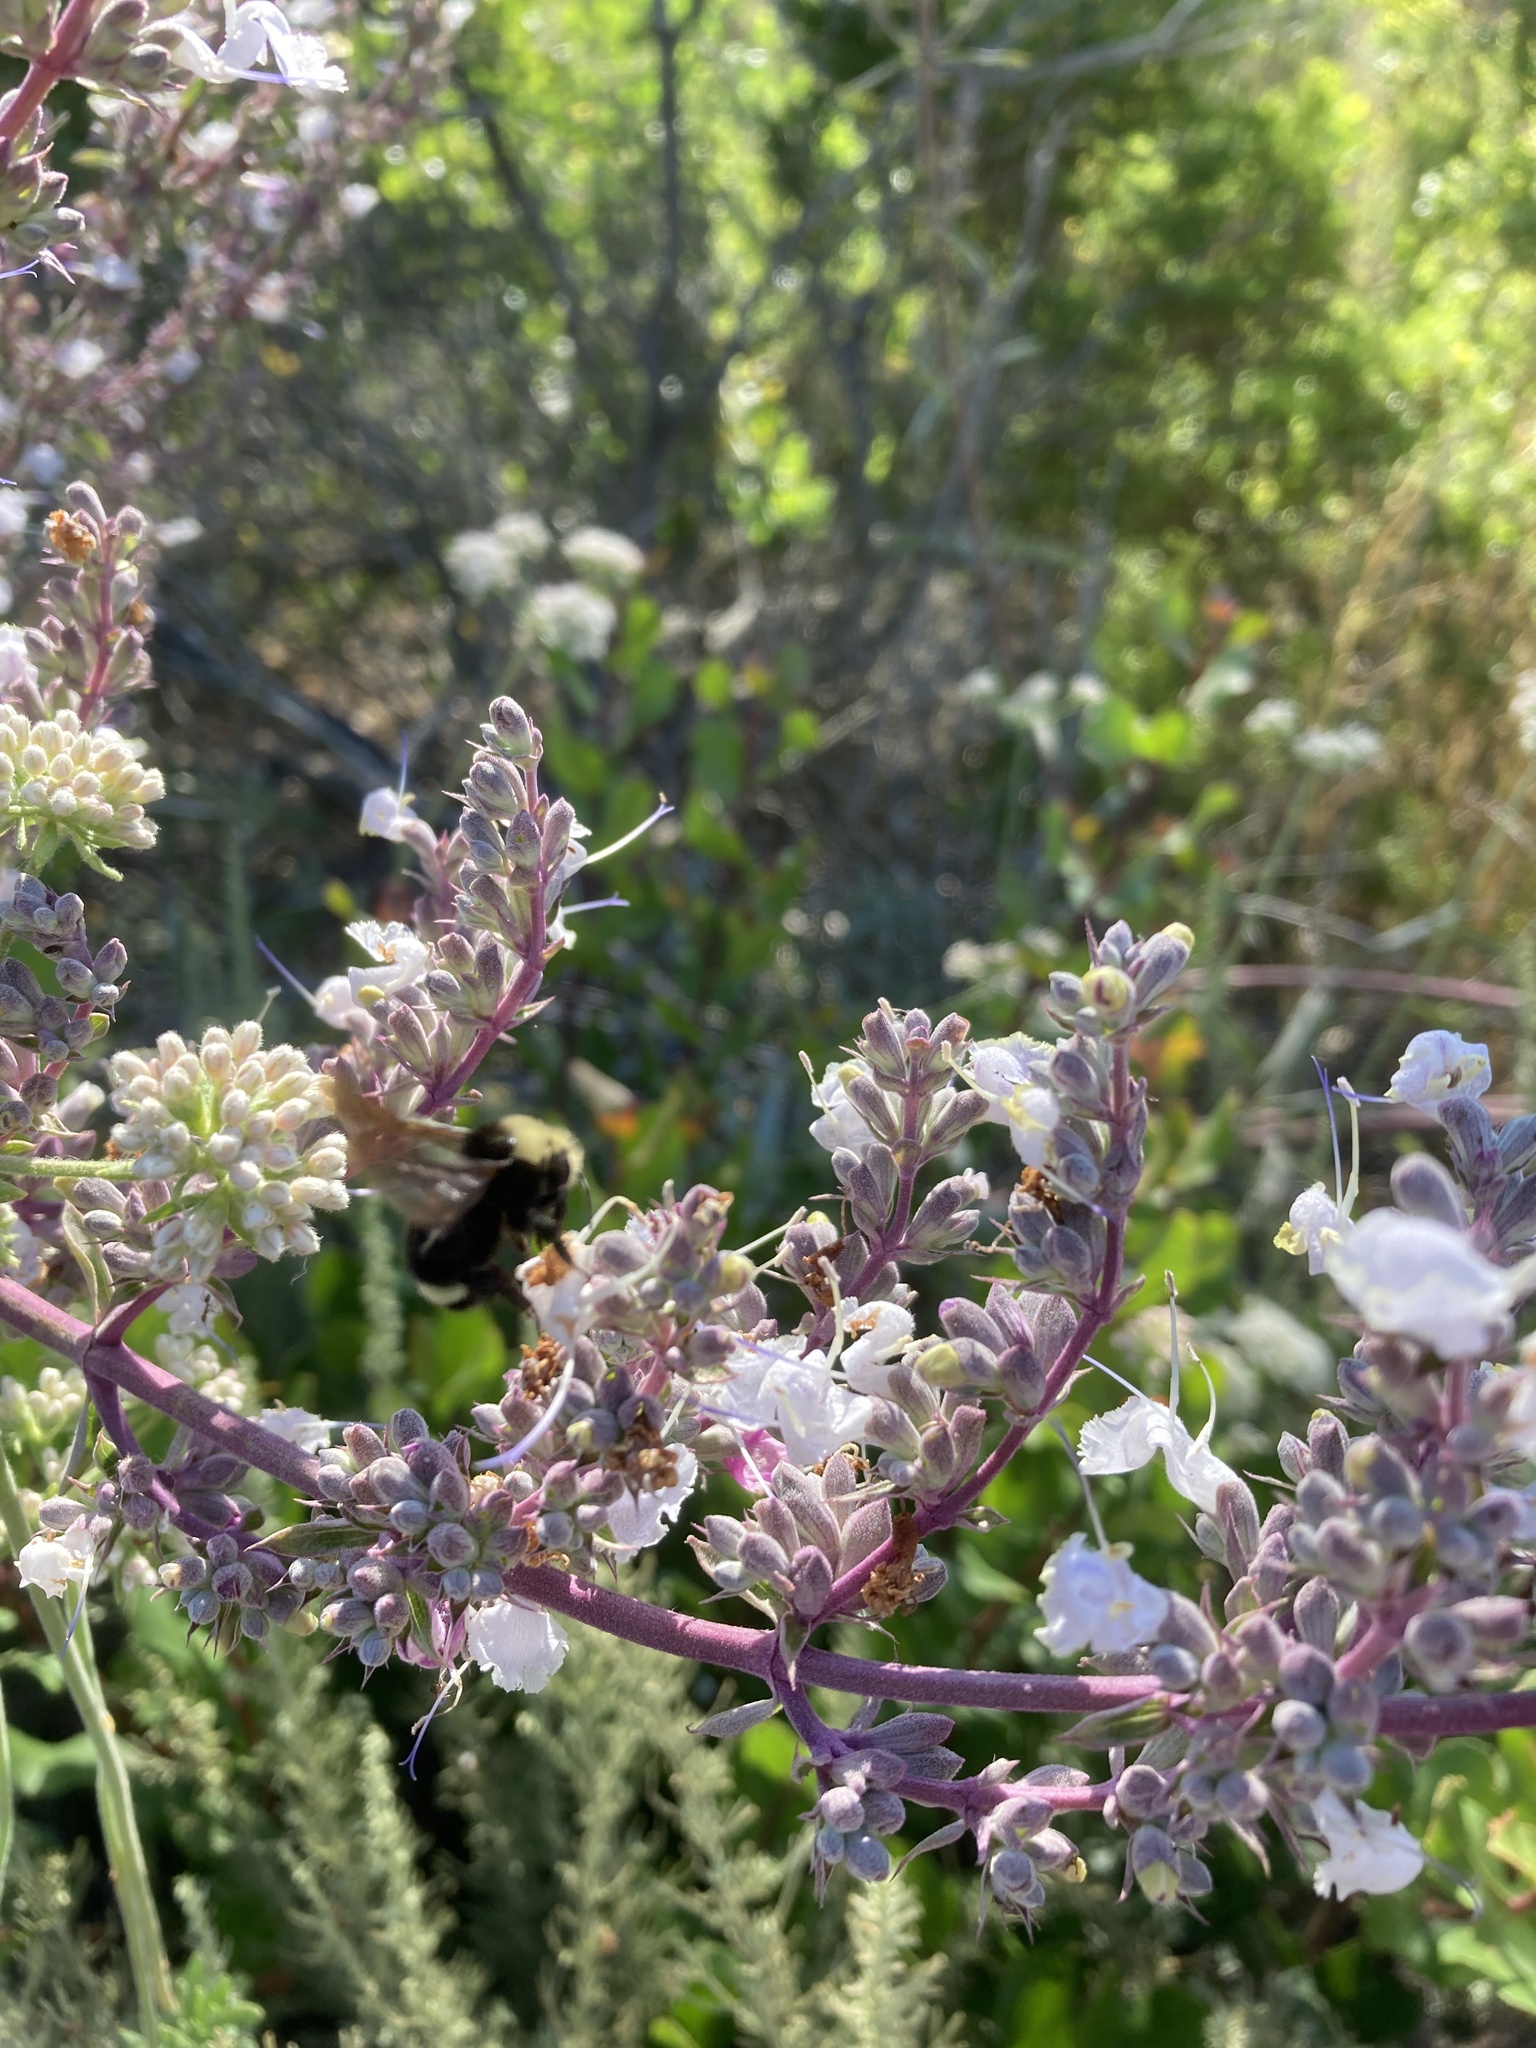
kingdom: Animalia
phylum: Arthropoda
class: Insecta
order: Hymenoptera
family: Apidae
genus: Bombus
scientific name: Bombus vosnesenskii
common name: Vosnesensky bumble bee
